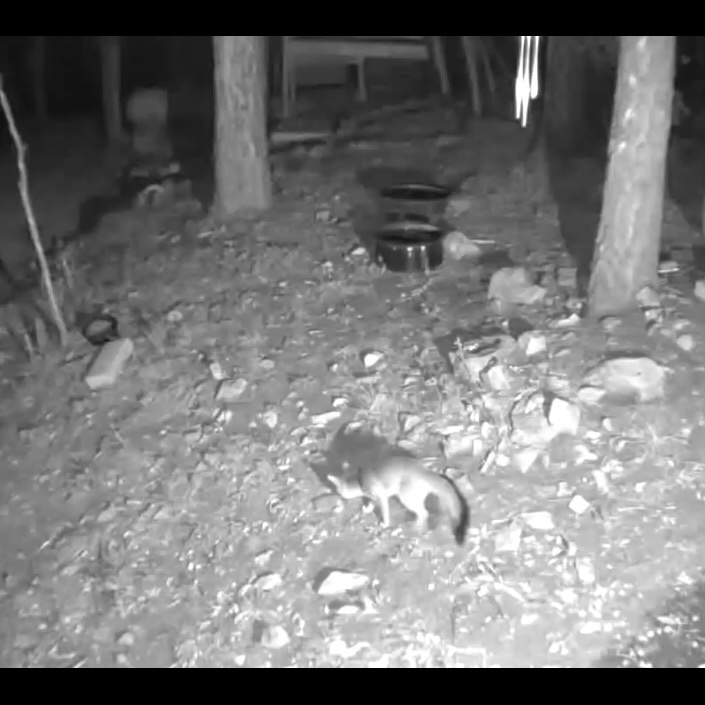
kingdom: Animalia
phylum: Chordata
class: Mammalia
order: Carnivora
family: Canidae
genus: Urocyon
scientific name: Urocyon cinereoargenteus
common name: Gray fox
